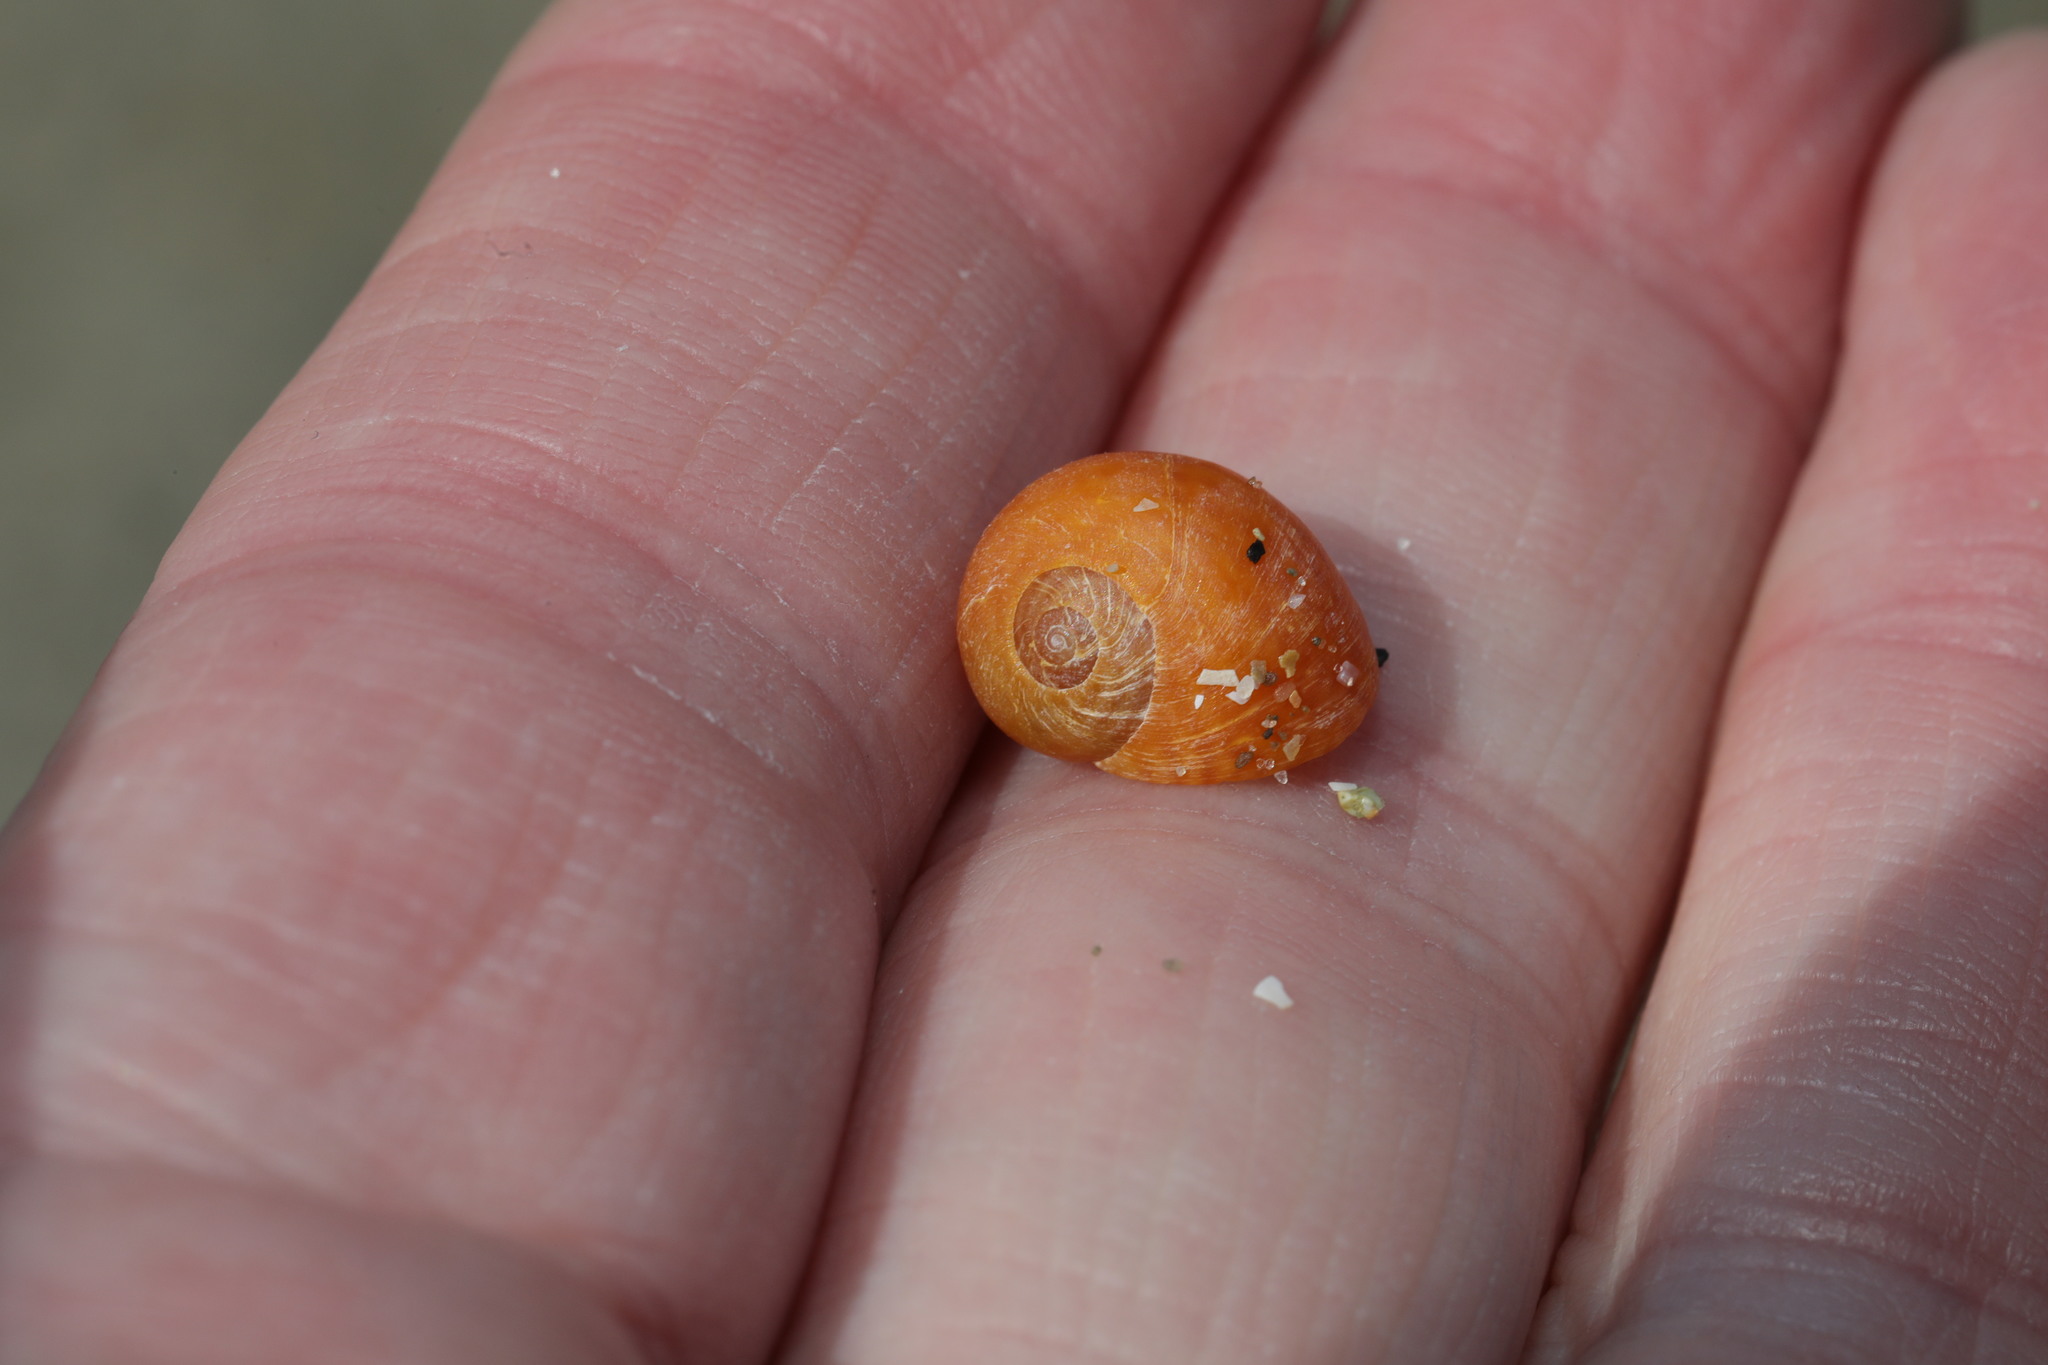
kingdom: Animalia
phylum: Mollusca
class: Gastropoda
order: Littorinimorpha
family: Littorinidae
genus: Littorina
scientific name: Littorina obtusata
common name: Flat periwinkle
